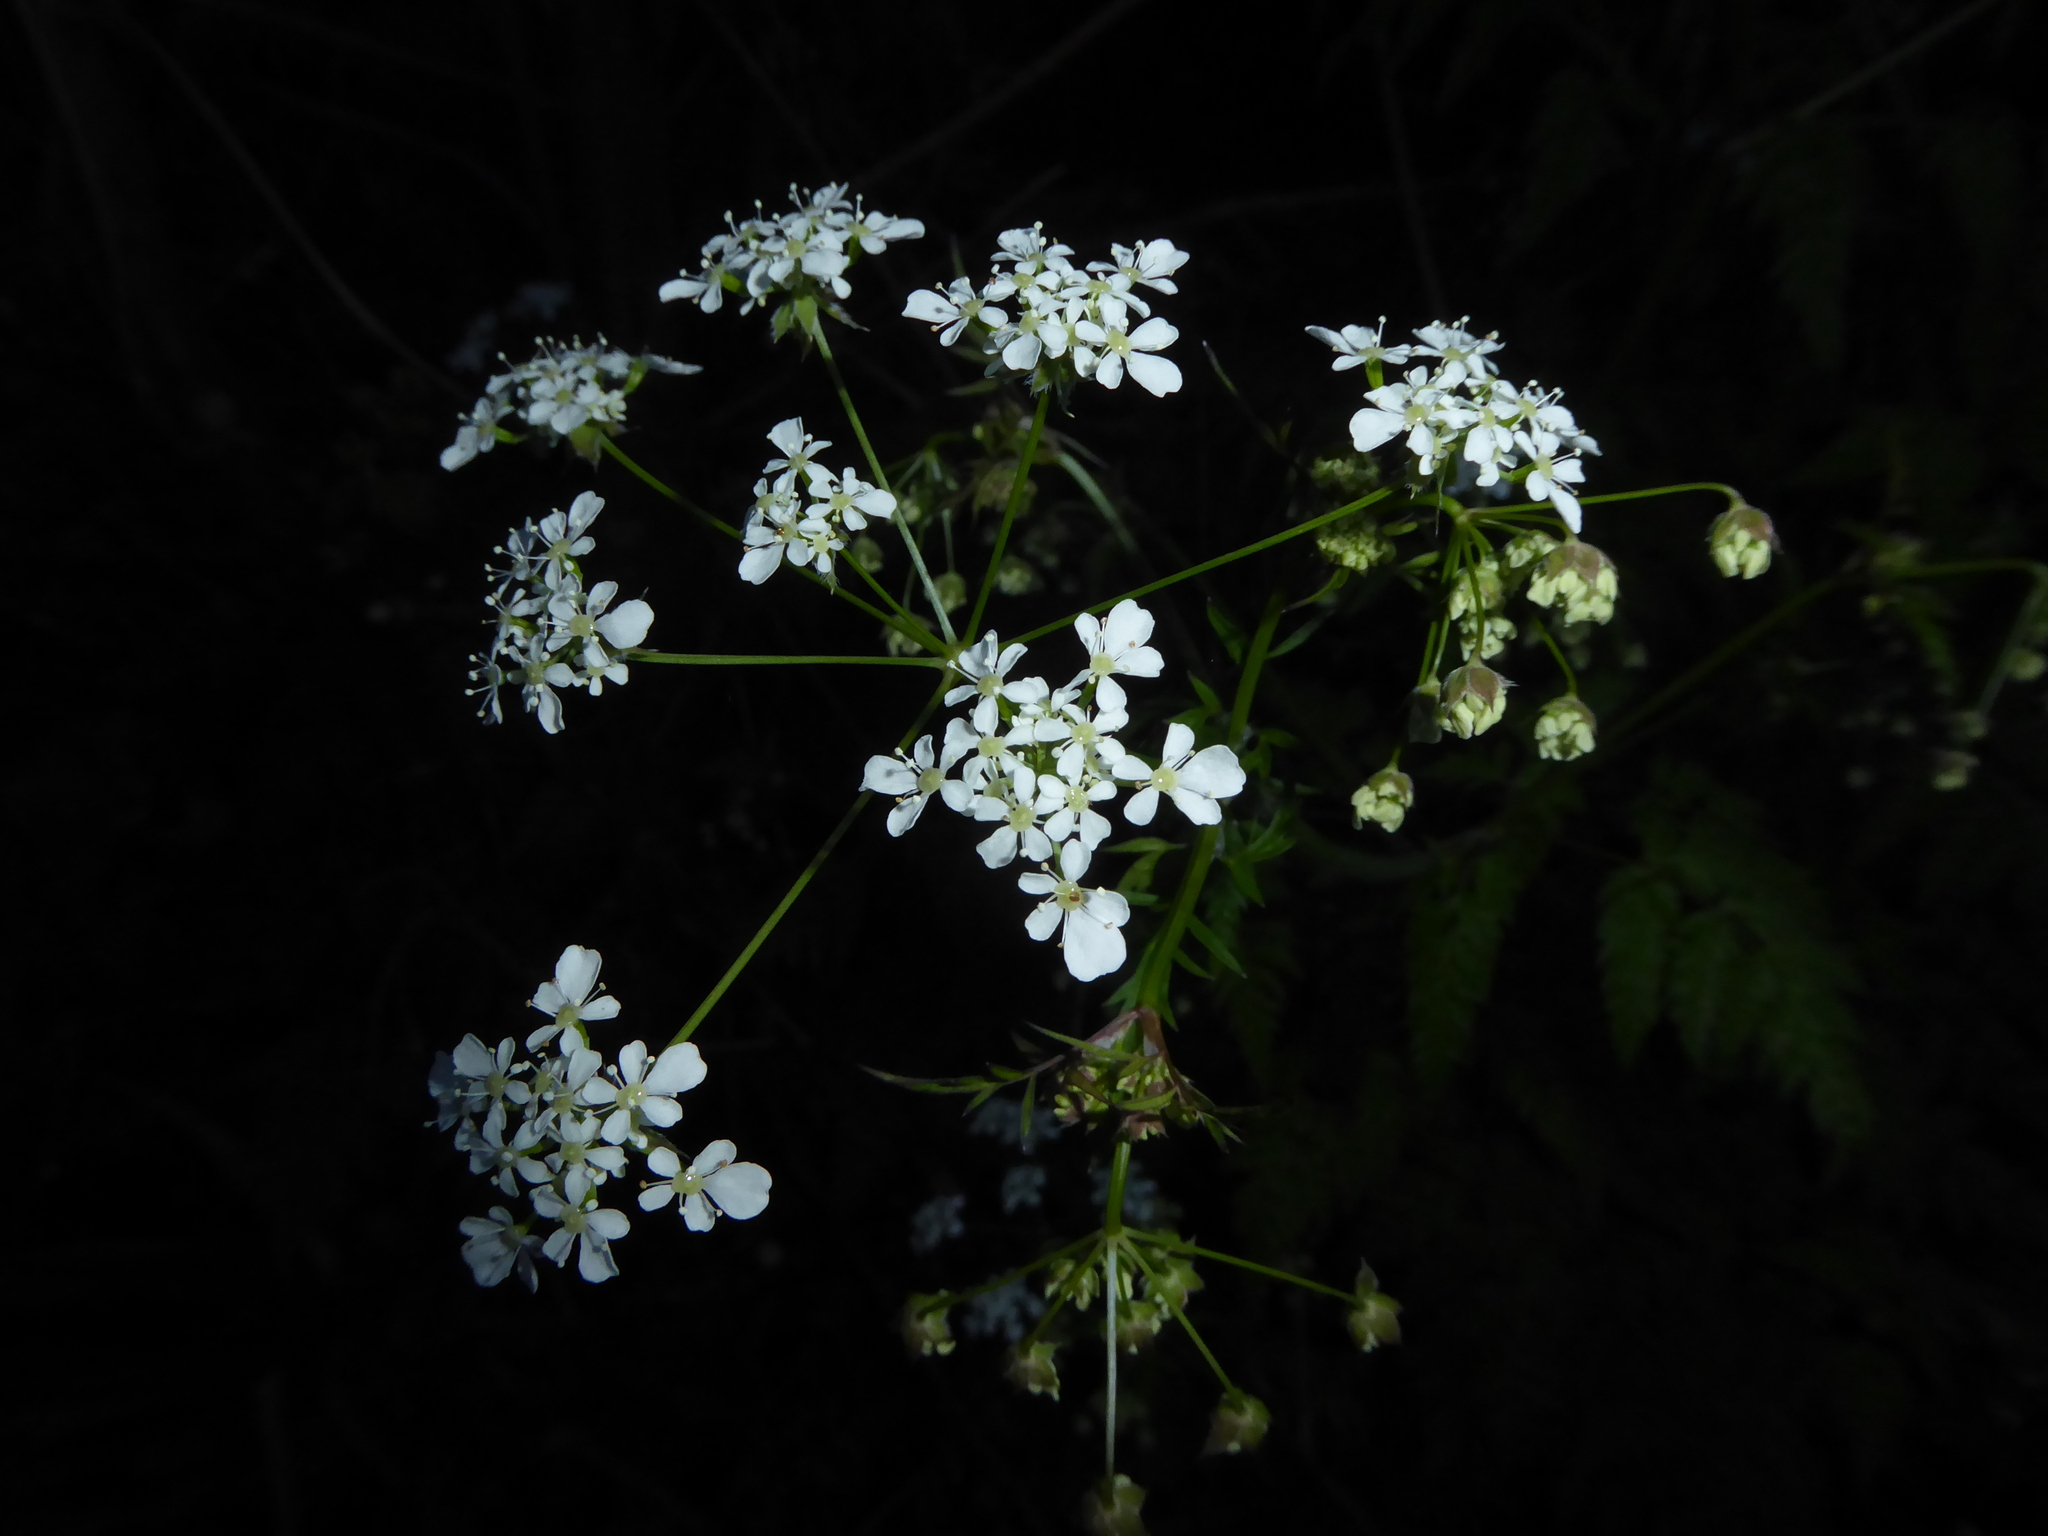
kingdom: Plantae
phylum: Tracheophyta
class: Magnoliopsida
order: Apiales
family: Apiaceae
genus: Anthriscus
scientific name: Anthriscus sylvestris
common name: Cow parsley
